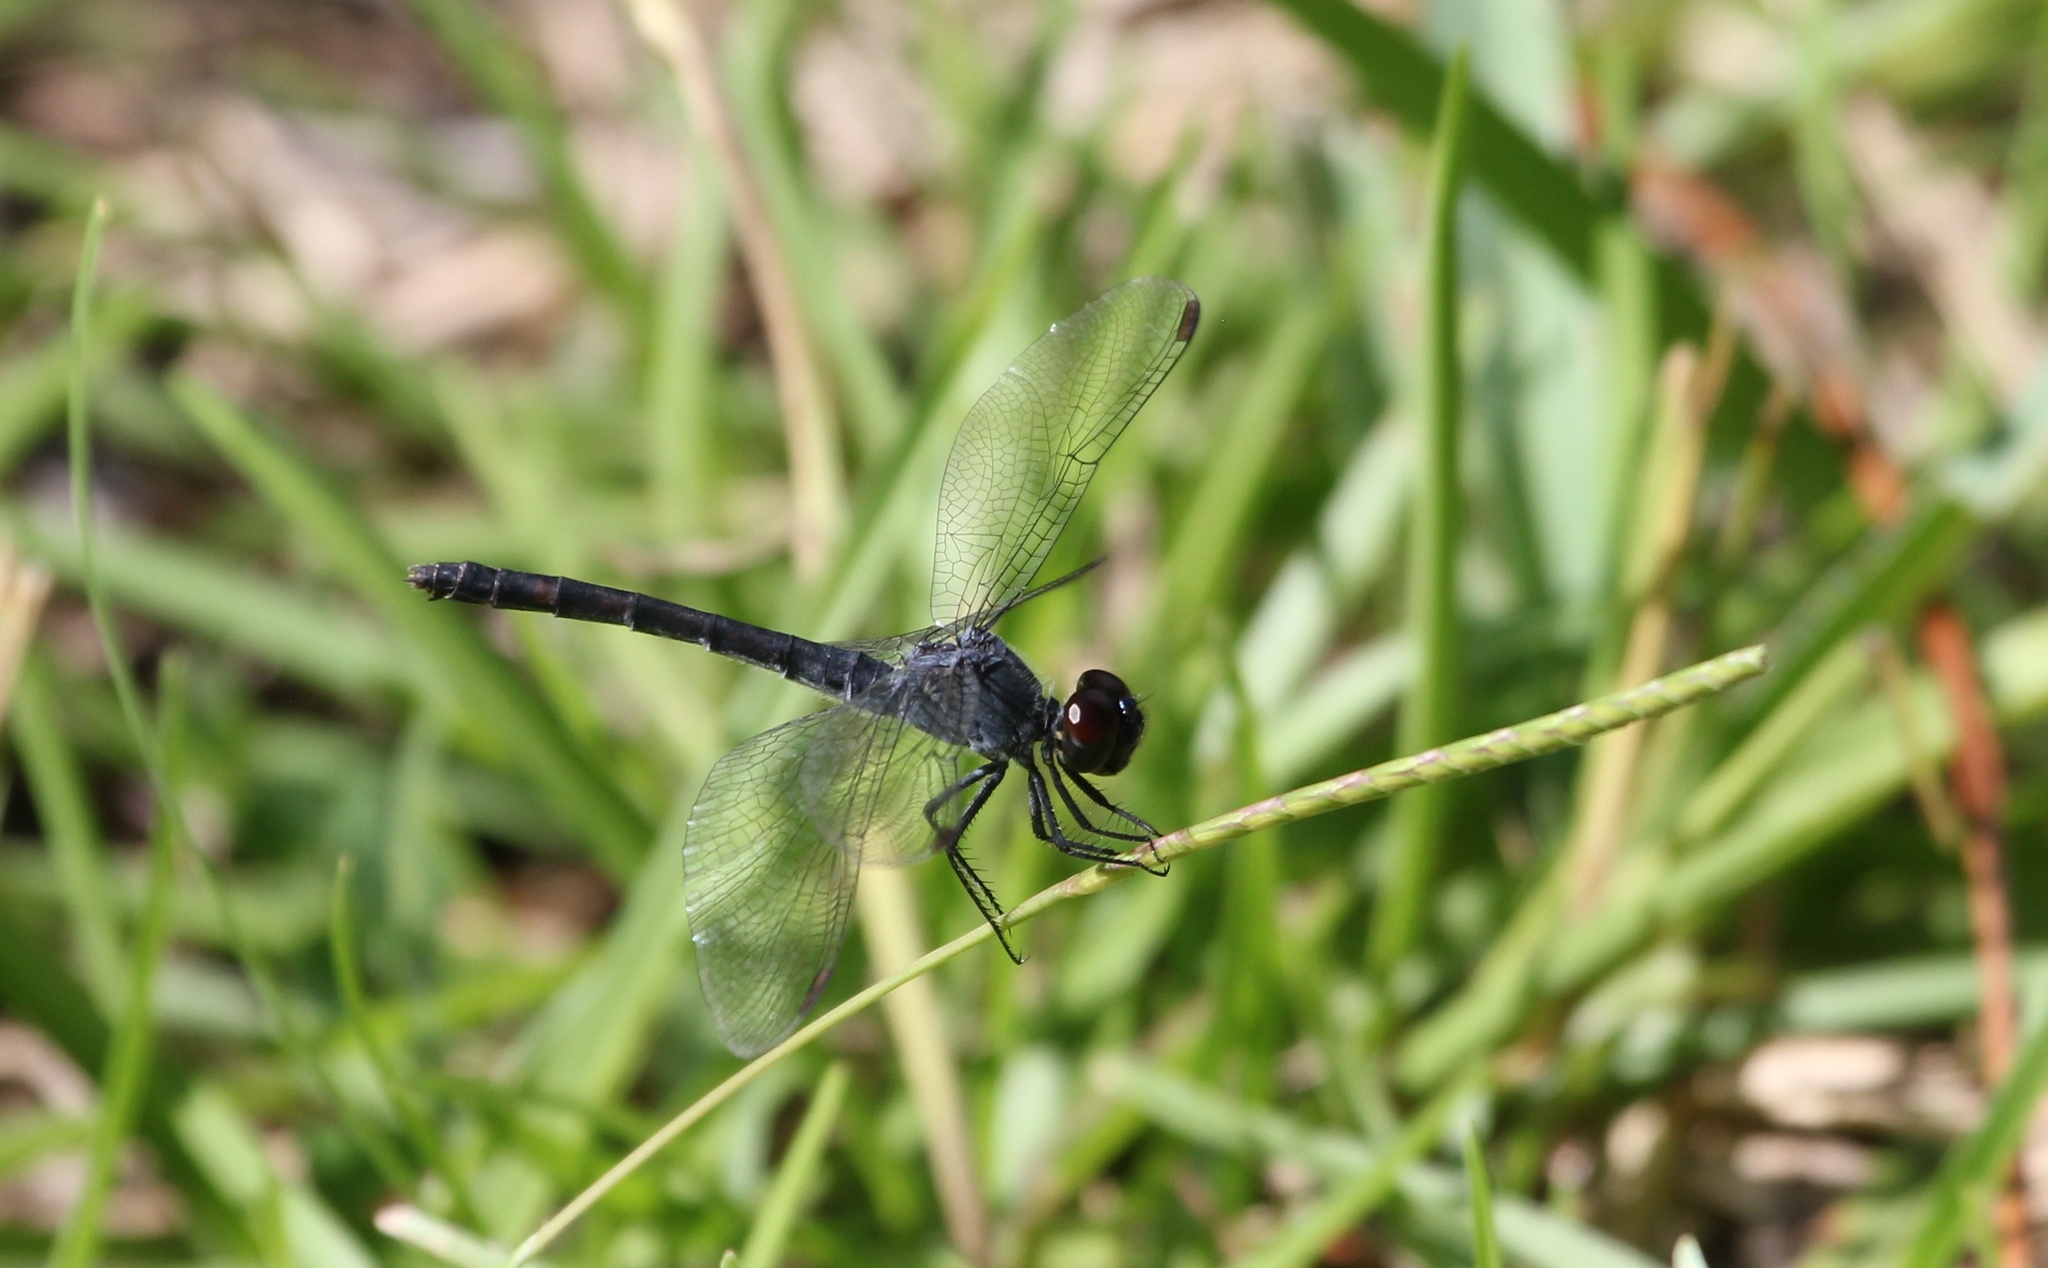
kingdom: Animalia
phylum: Arthropoda
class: Insecta
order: Odonata
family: Libellulidae
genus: Erythrodiplax
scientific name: Erythrodiplax berenice
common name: Seaside dragonlet
